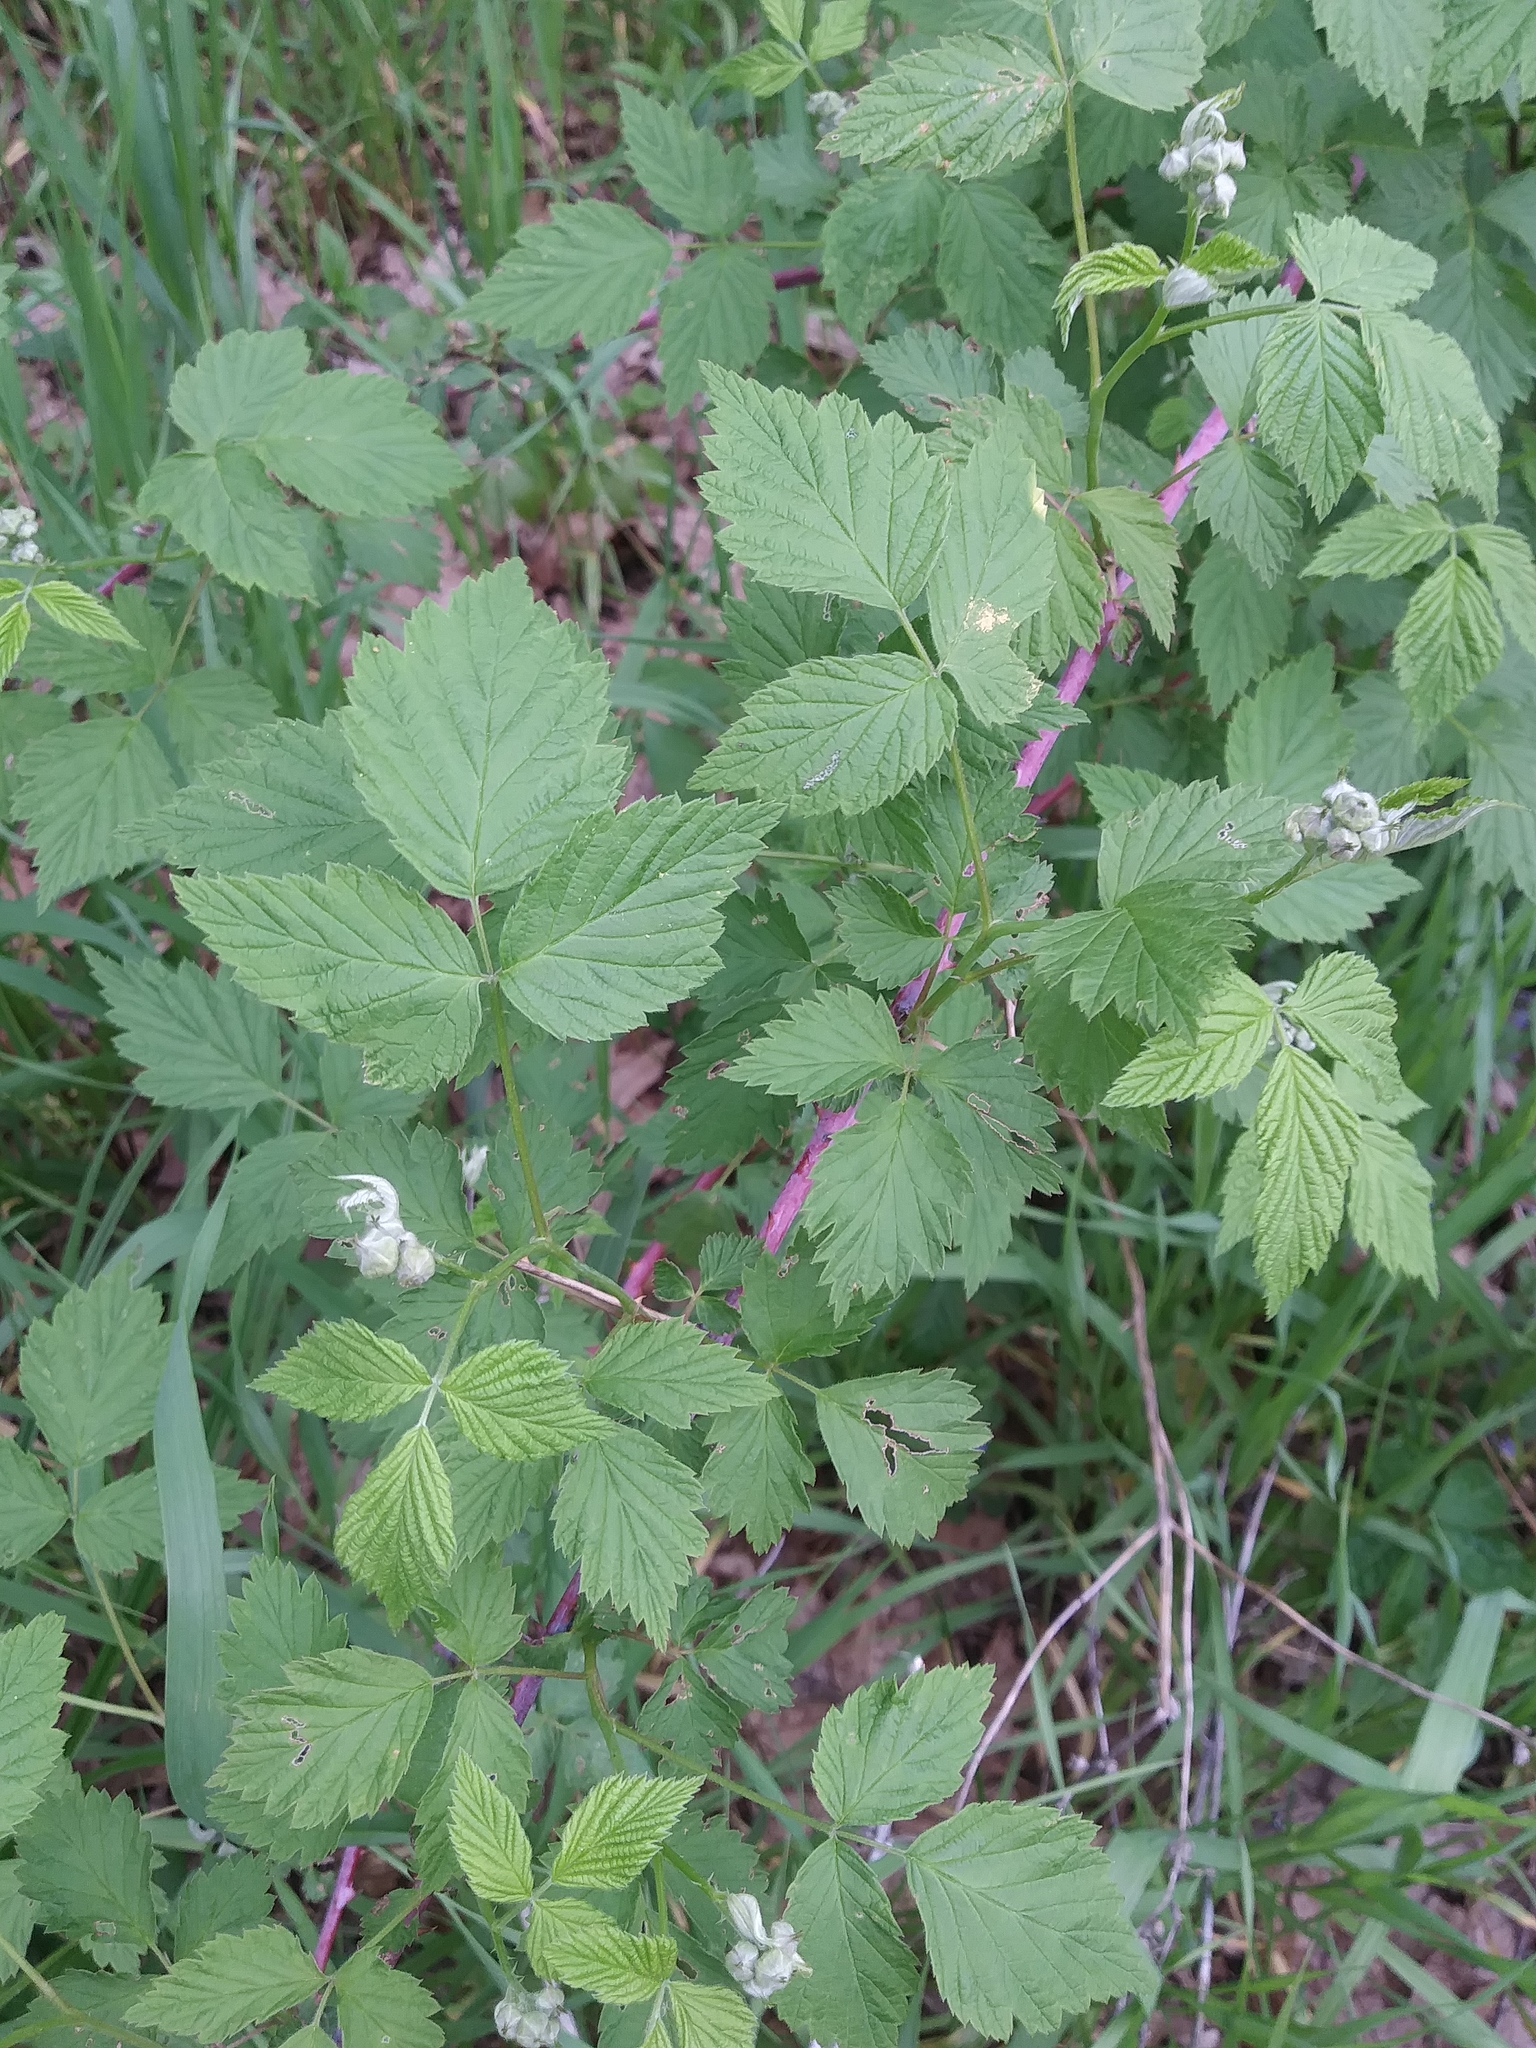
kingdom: Plantae
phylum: Tracheophyta
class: Magnoliopsida
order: Rosales
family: Rosaceae
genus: Rubus
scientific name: Rubus occidentalis
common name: Black raspberry
